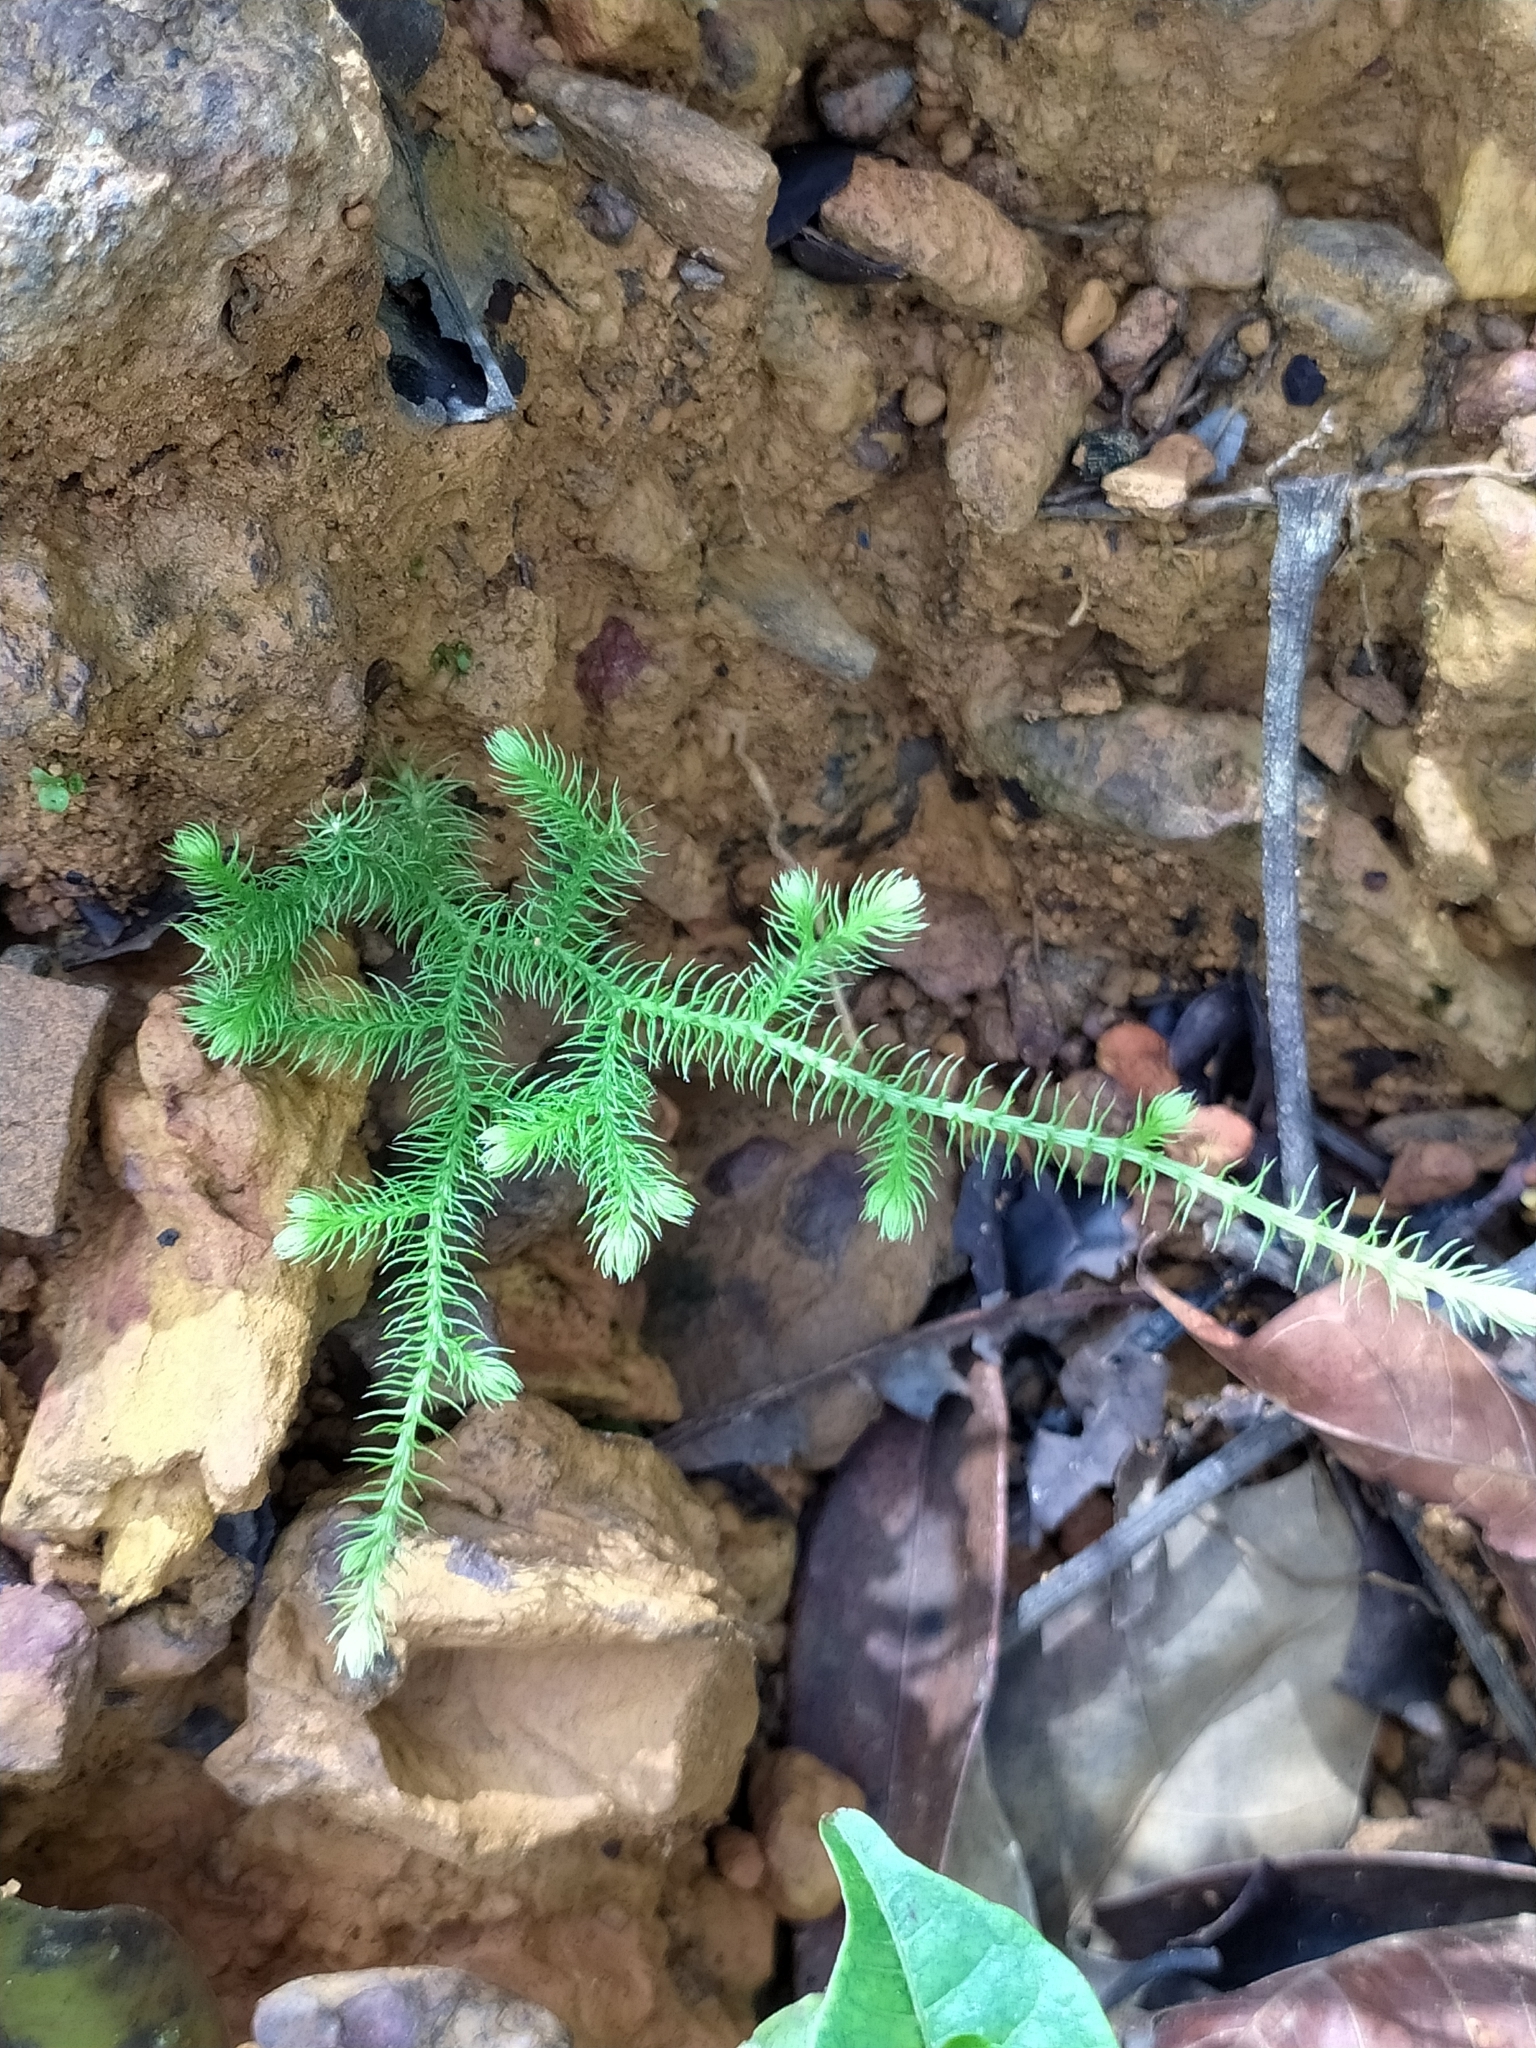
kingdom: Plantae
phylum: Tracheophyta
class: Lycopodiopsida
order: Lycopodiales
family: Lycopodiaceae
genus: Palhinhaea
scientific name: Palhinhaea cernua
